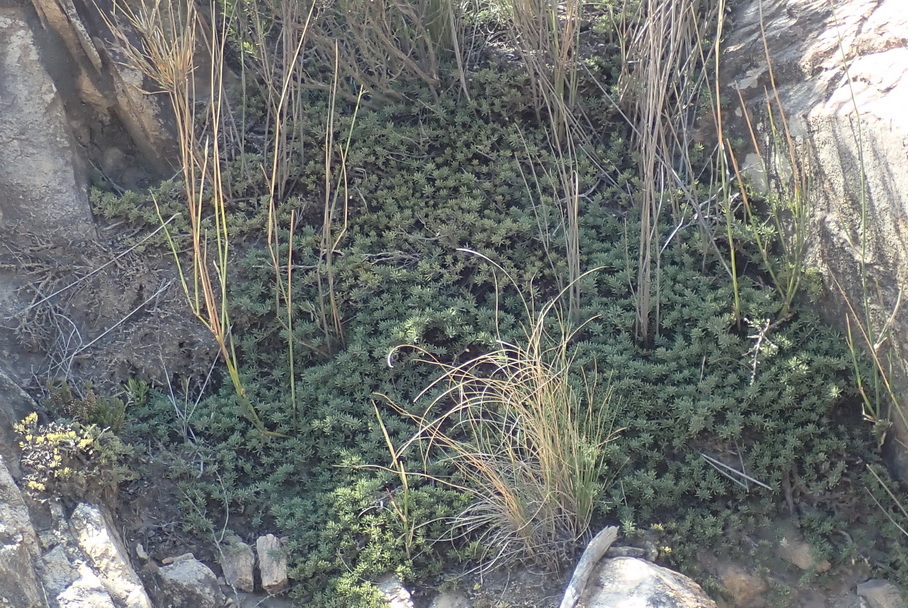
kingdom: Plantae
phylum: Tracheophyta
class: Magnoliopsida
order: Fabales
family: Fabaceae
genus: Aspalathus
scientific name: Aspalathus rigidifolia
